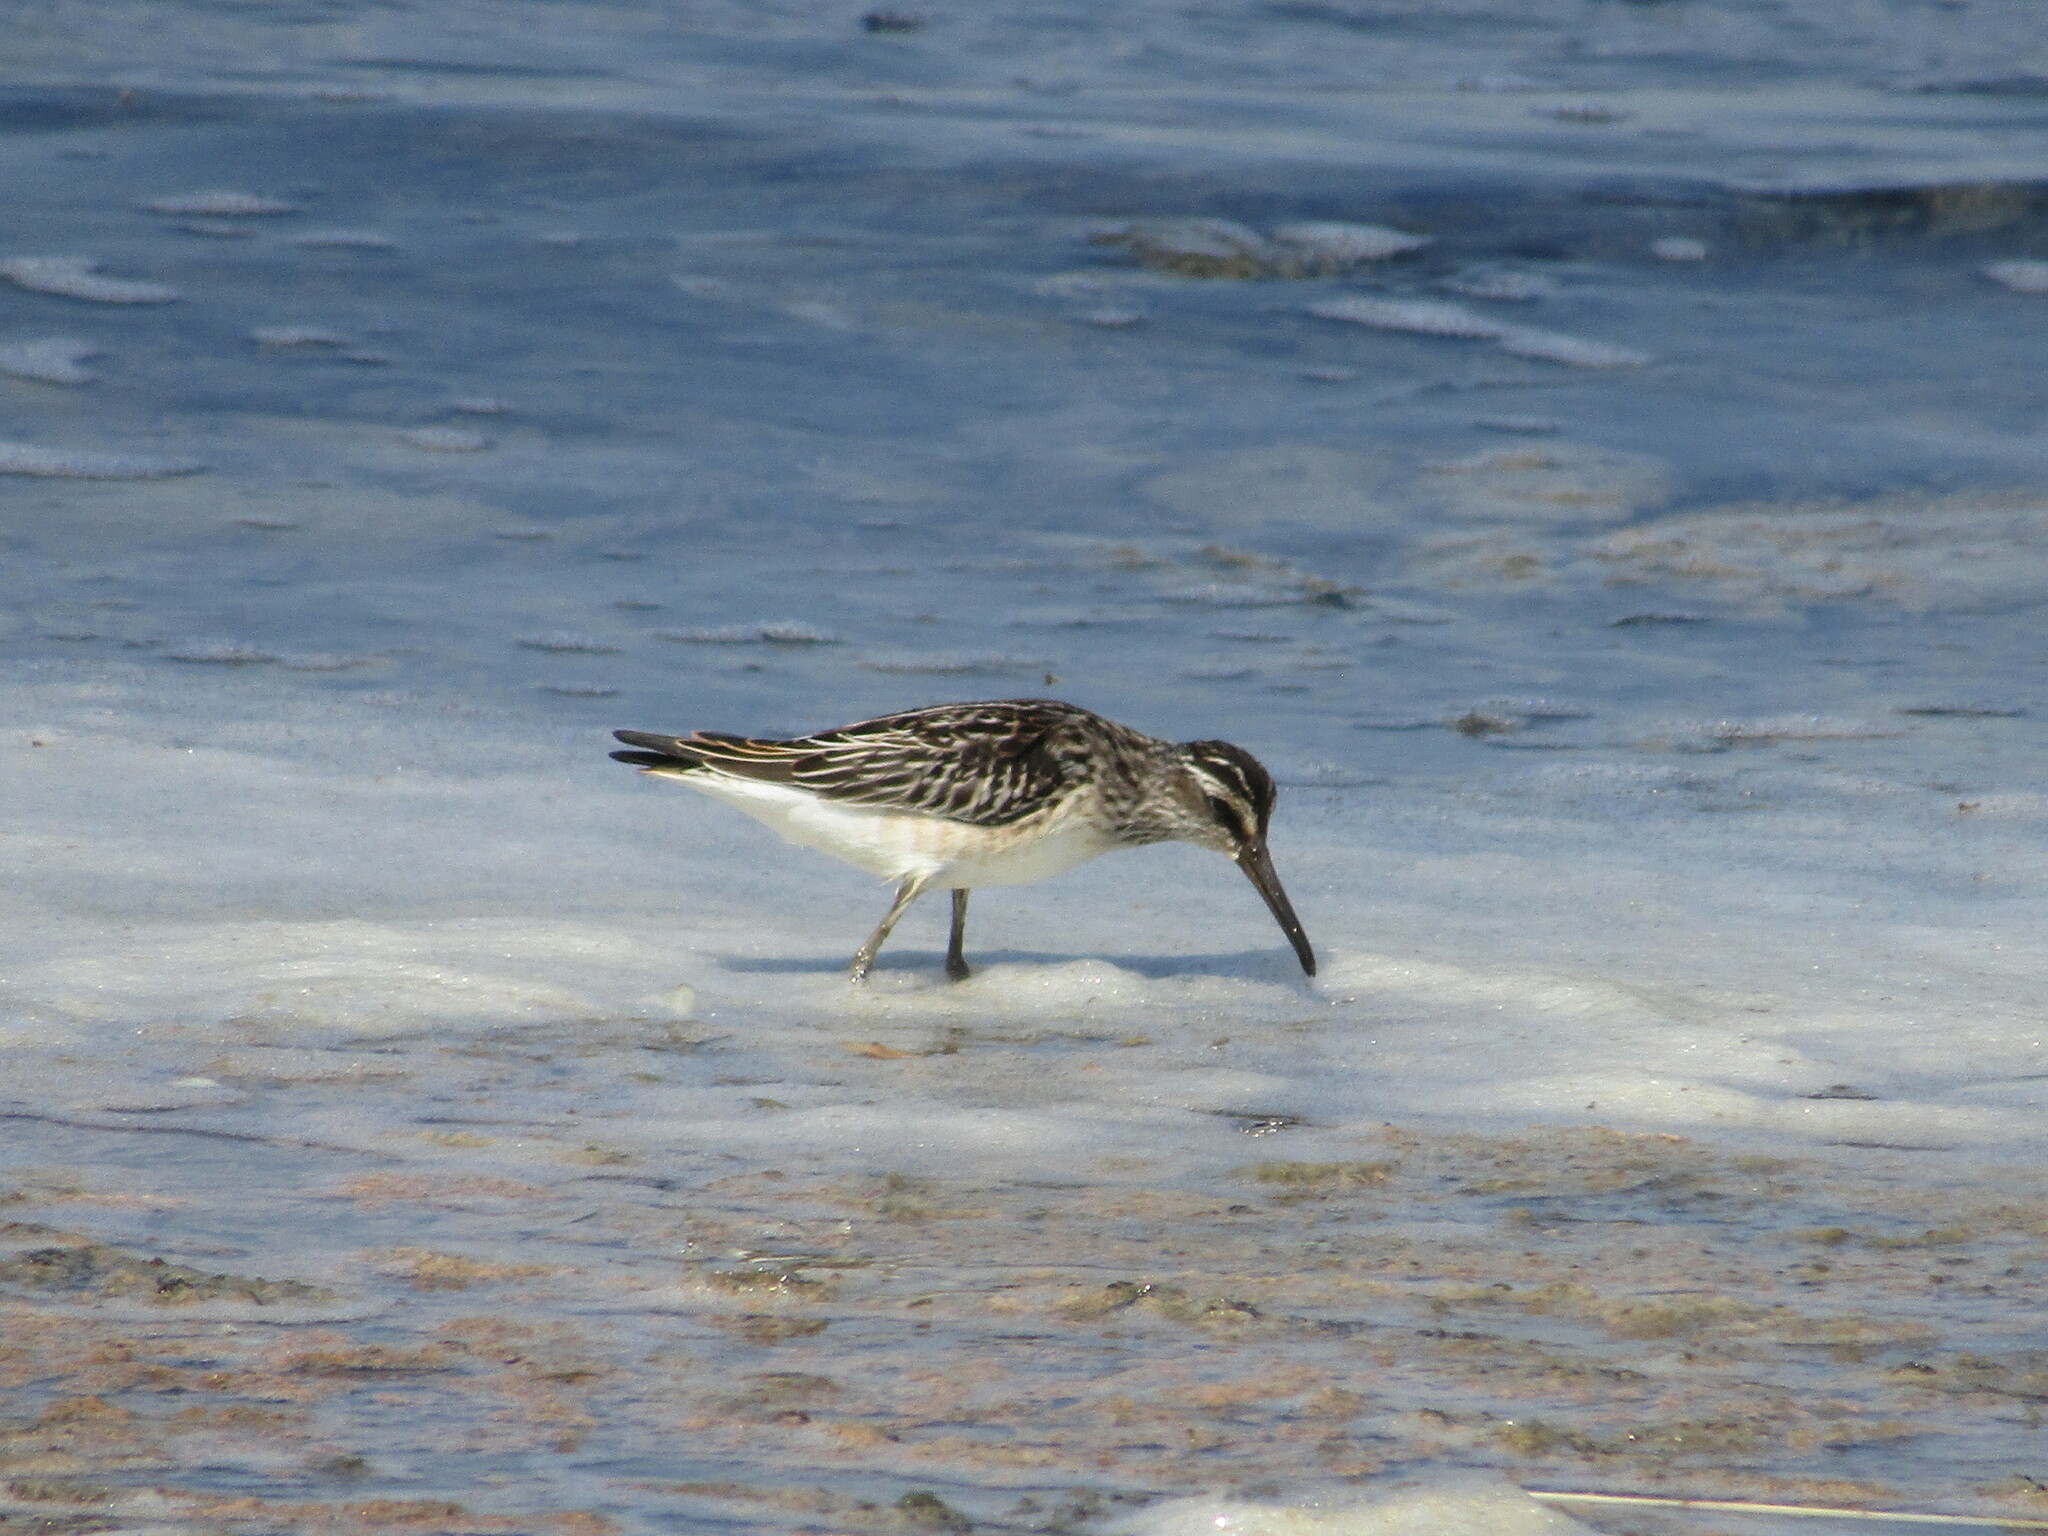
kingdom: Animalia
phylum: Chordata
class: Aves
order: Charadriiformes
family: Scolopacidae
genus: Calidris
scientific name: Calidris falcinellus
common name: Broad-billed sandpiper
